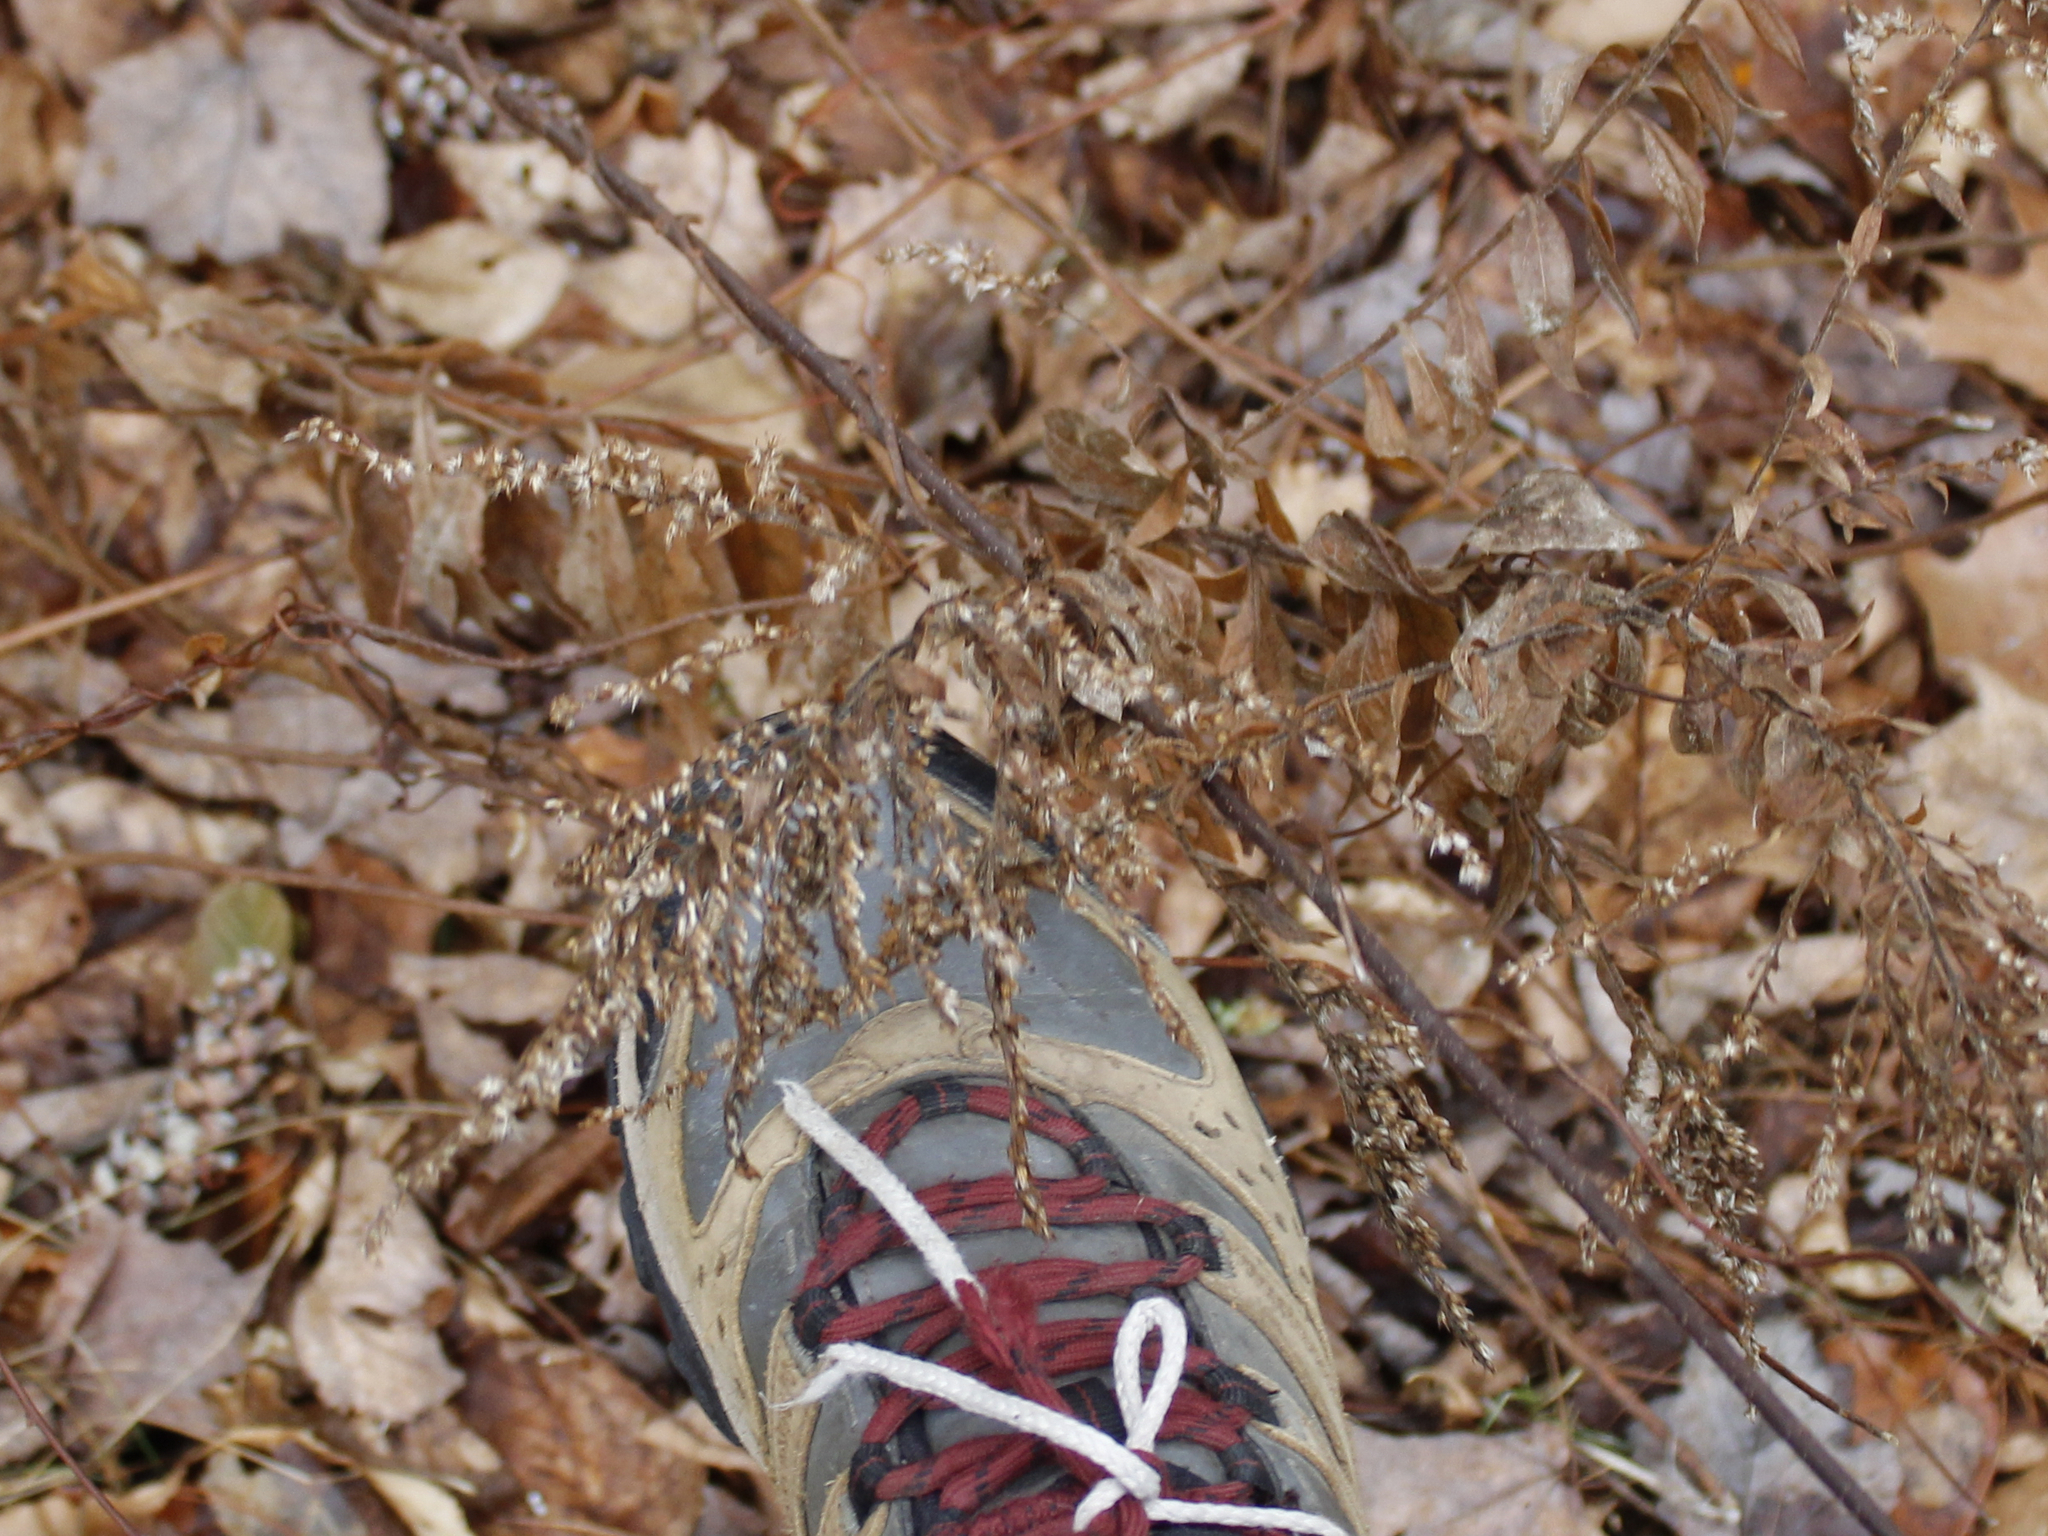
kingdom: Plantae
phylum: Tracheophyta
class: Magnoliopsida
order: Asterales
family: Asteraceae
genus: Solidago
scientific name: Solidago rugosa
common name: Rough-stemmed goldenrod
